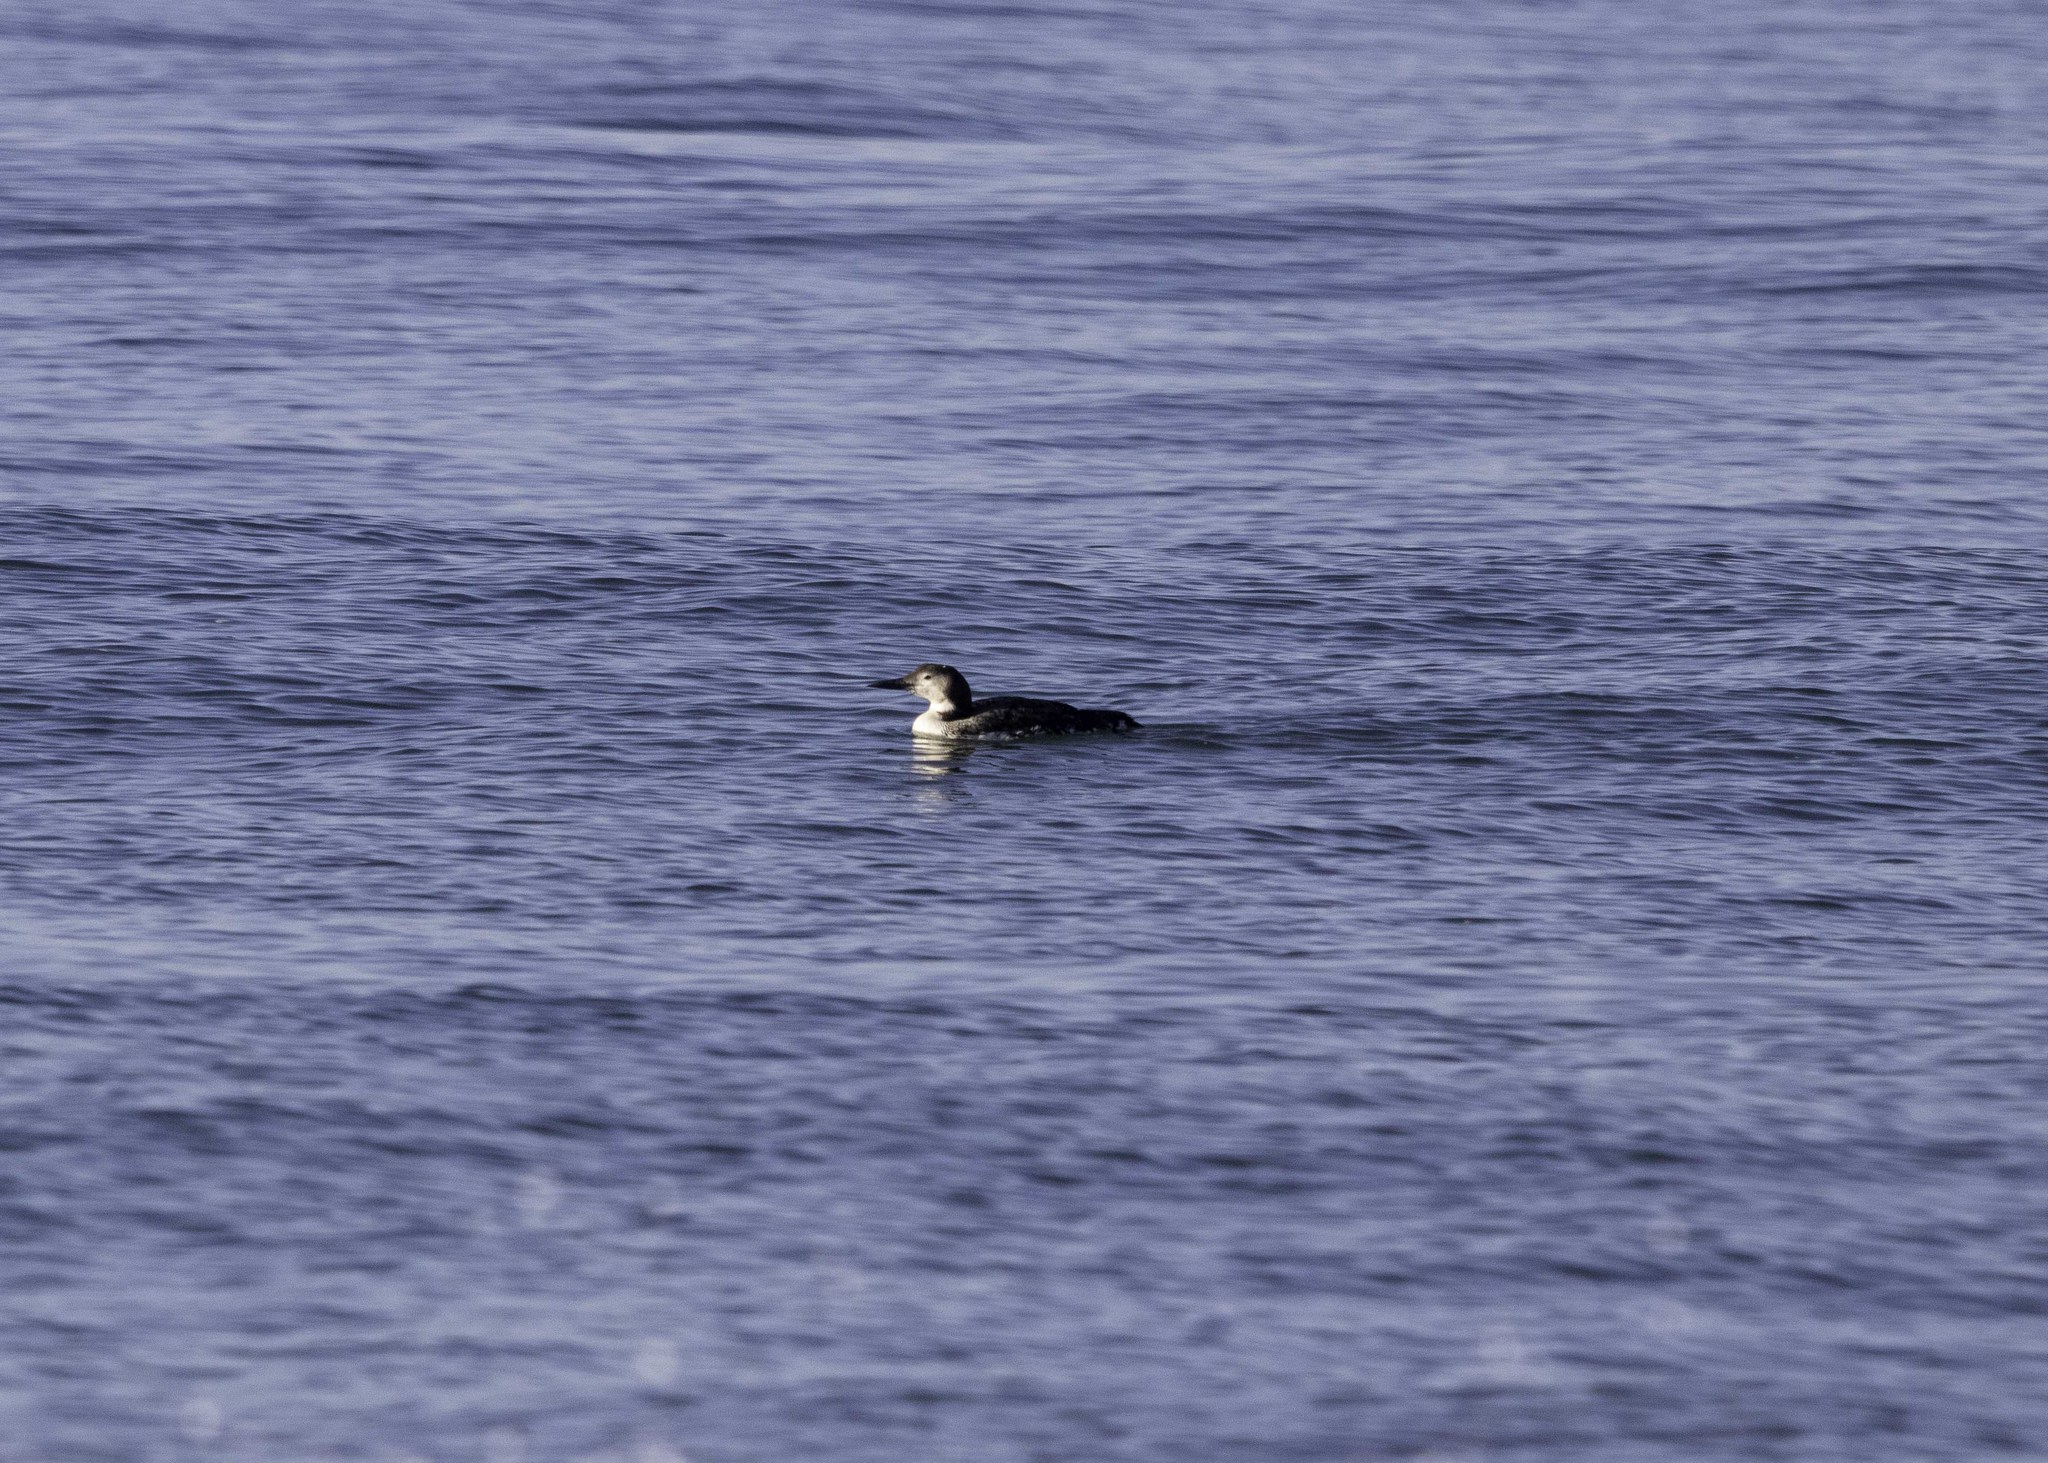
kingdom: Animalia
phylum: Chordata
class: Aves
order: Gaviiformes
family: Gaviidae
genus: Gavia
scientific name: Gavia immer
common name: Common loon
